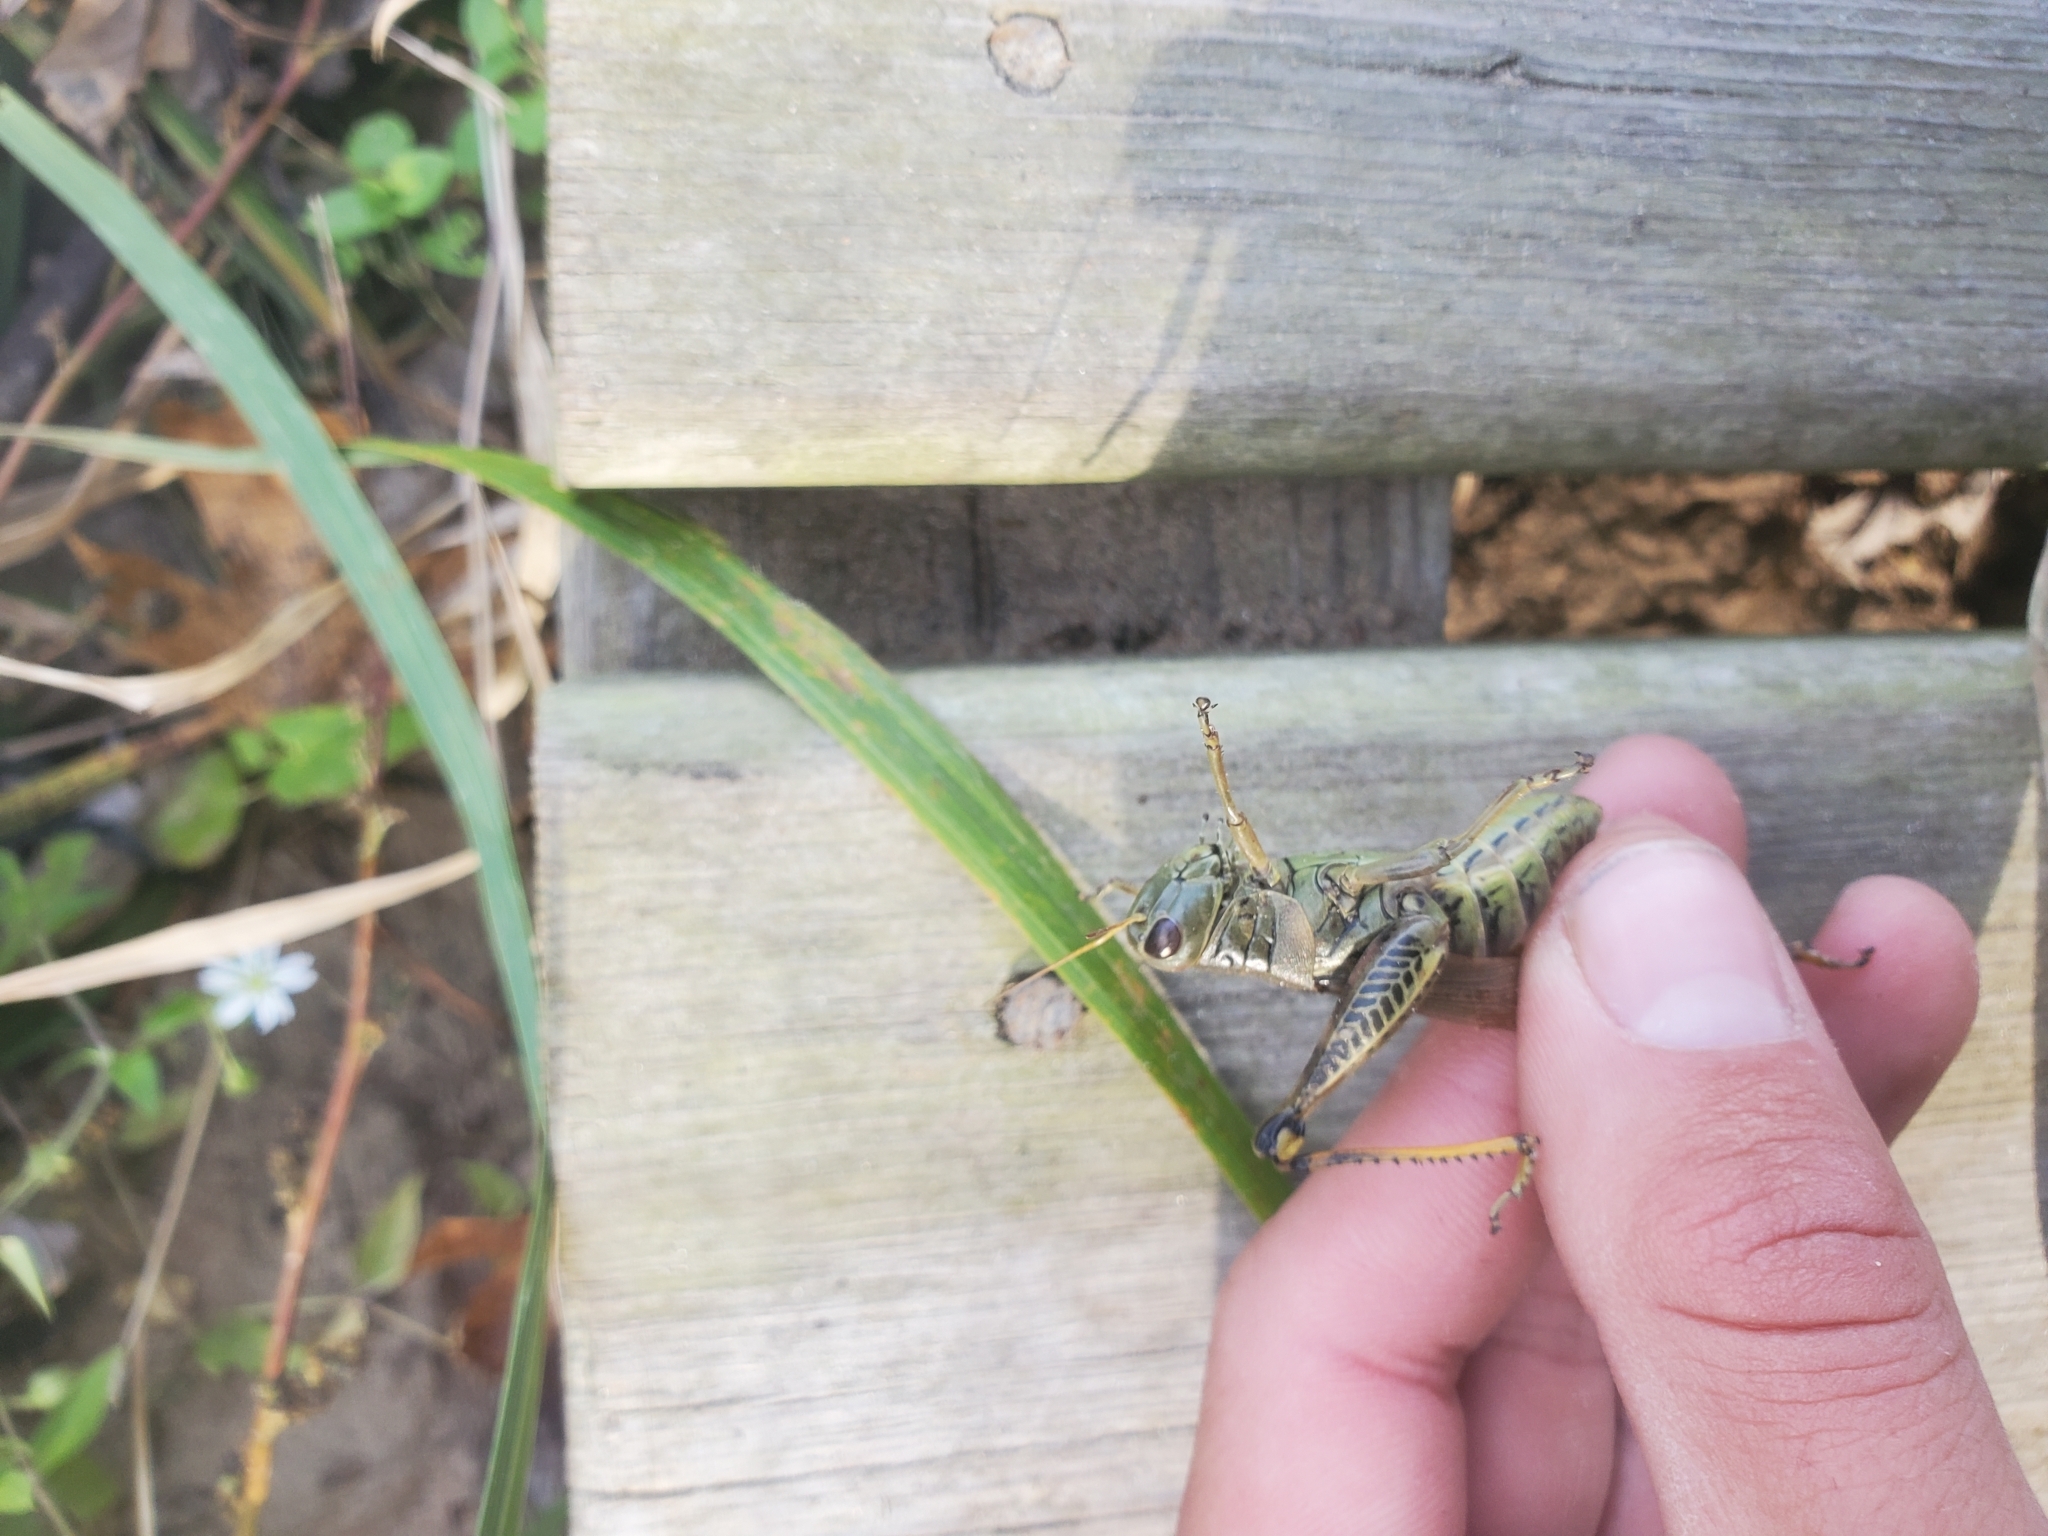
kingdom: Animalia
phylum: Arthropoda
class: Insecta
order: Orthoptera
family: Acrididae
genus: Melanoplus
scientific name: Melanoplus differentialis
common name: Differential grasshopper
